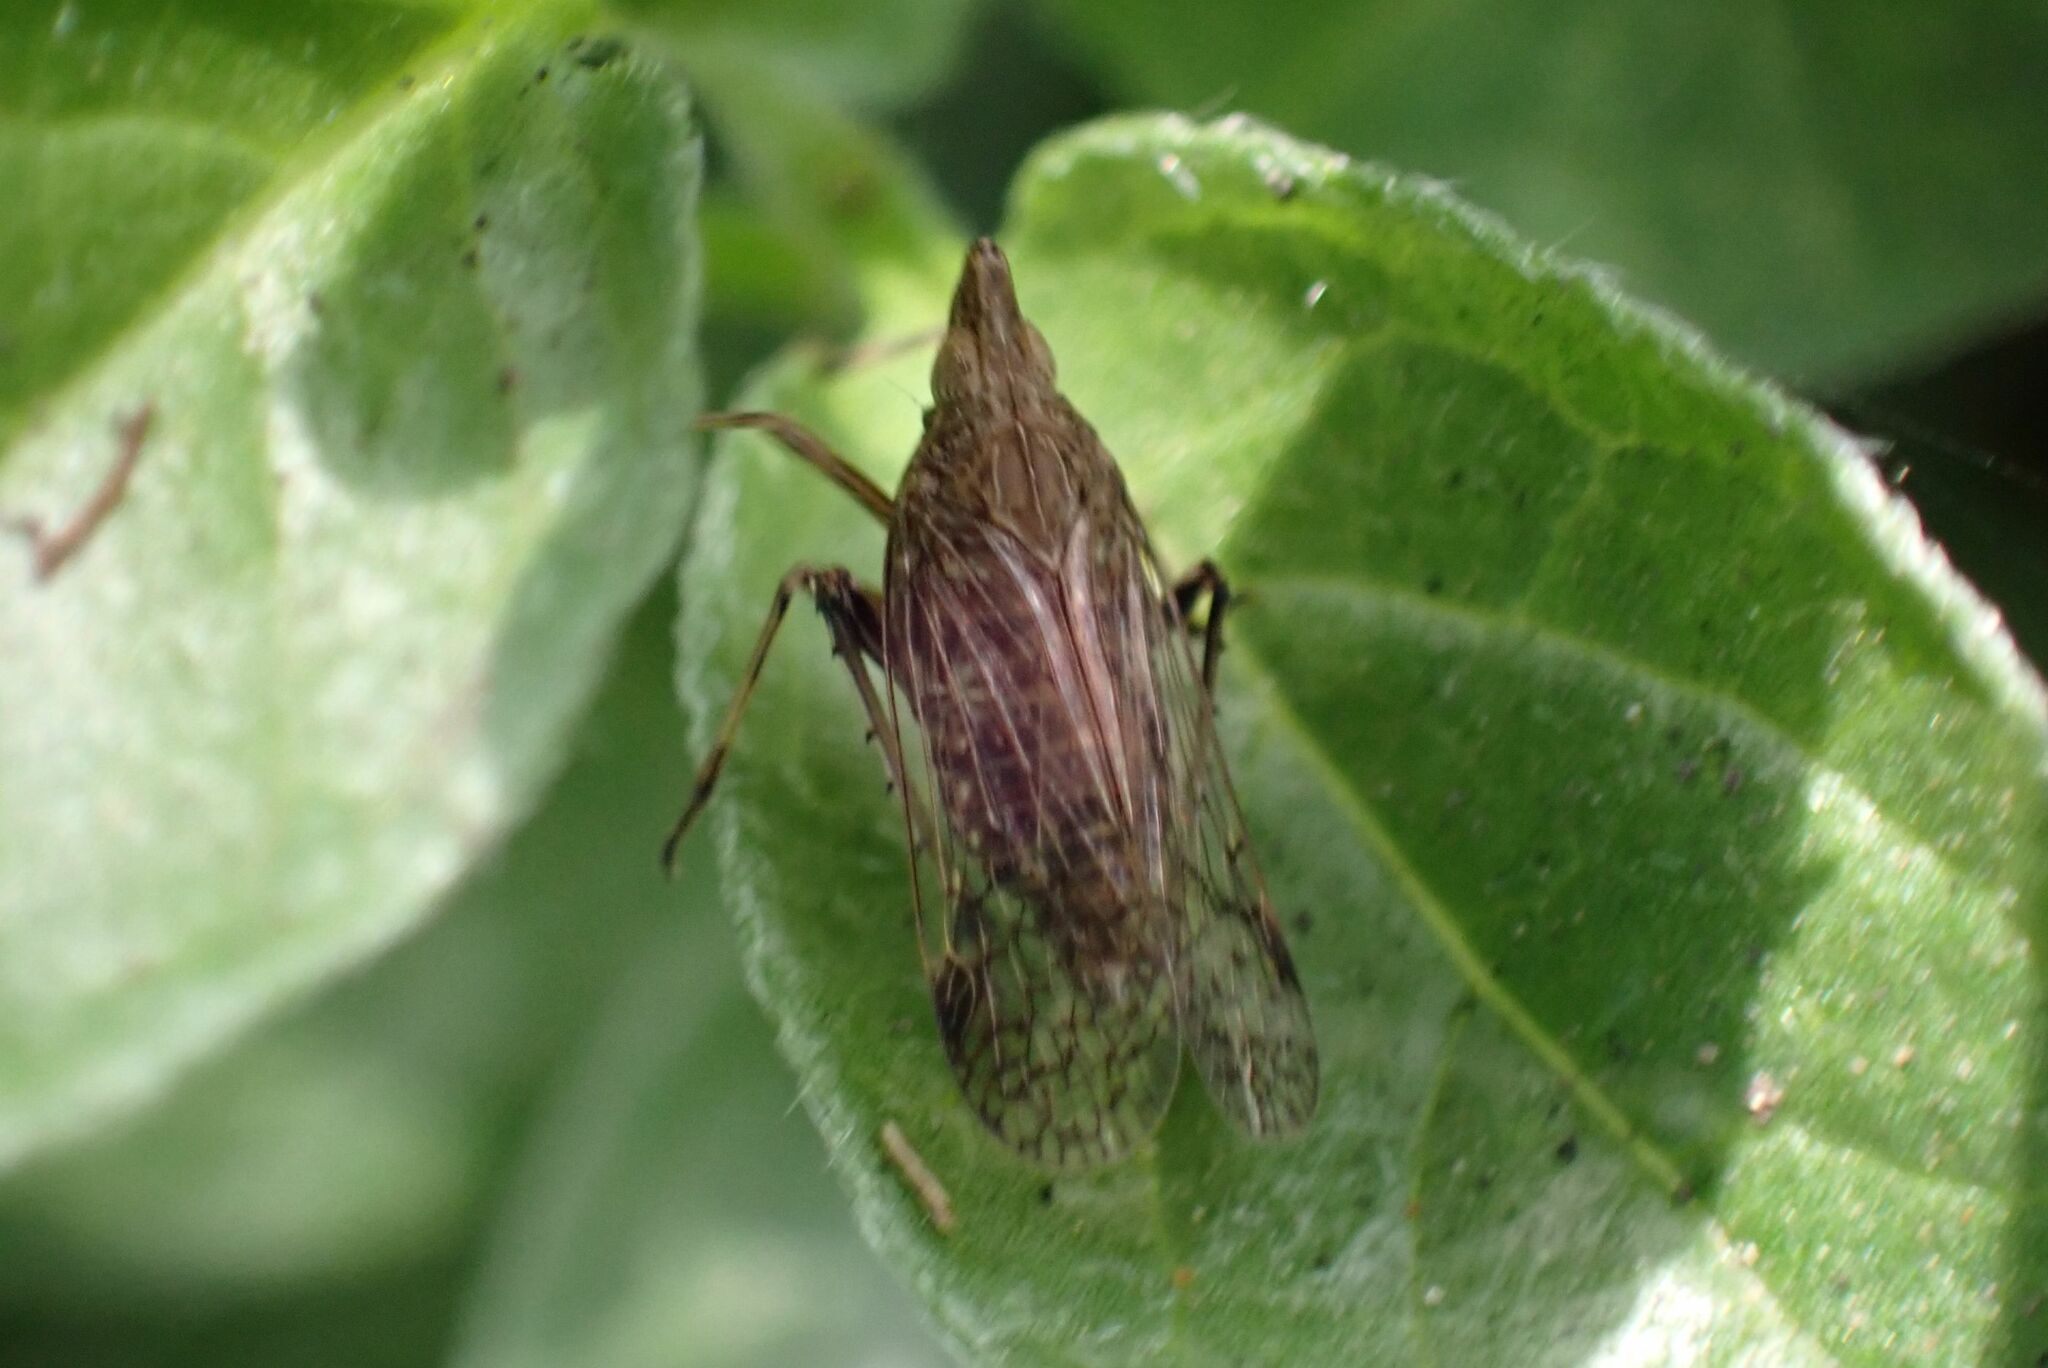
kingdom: Animalia
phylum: Arthropoda
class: Insecta
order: Hemiptera
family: Dictyopharidae
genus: Philotheria
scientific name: Philotheria natalensis
